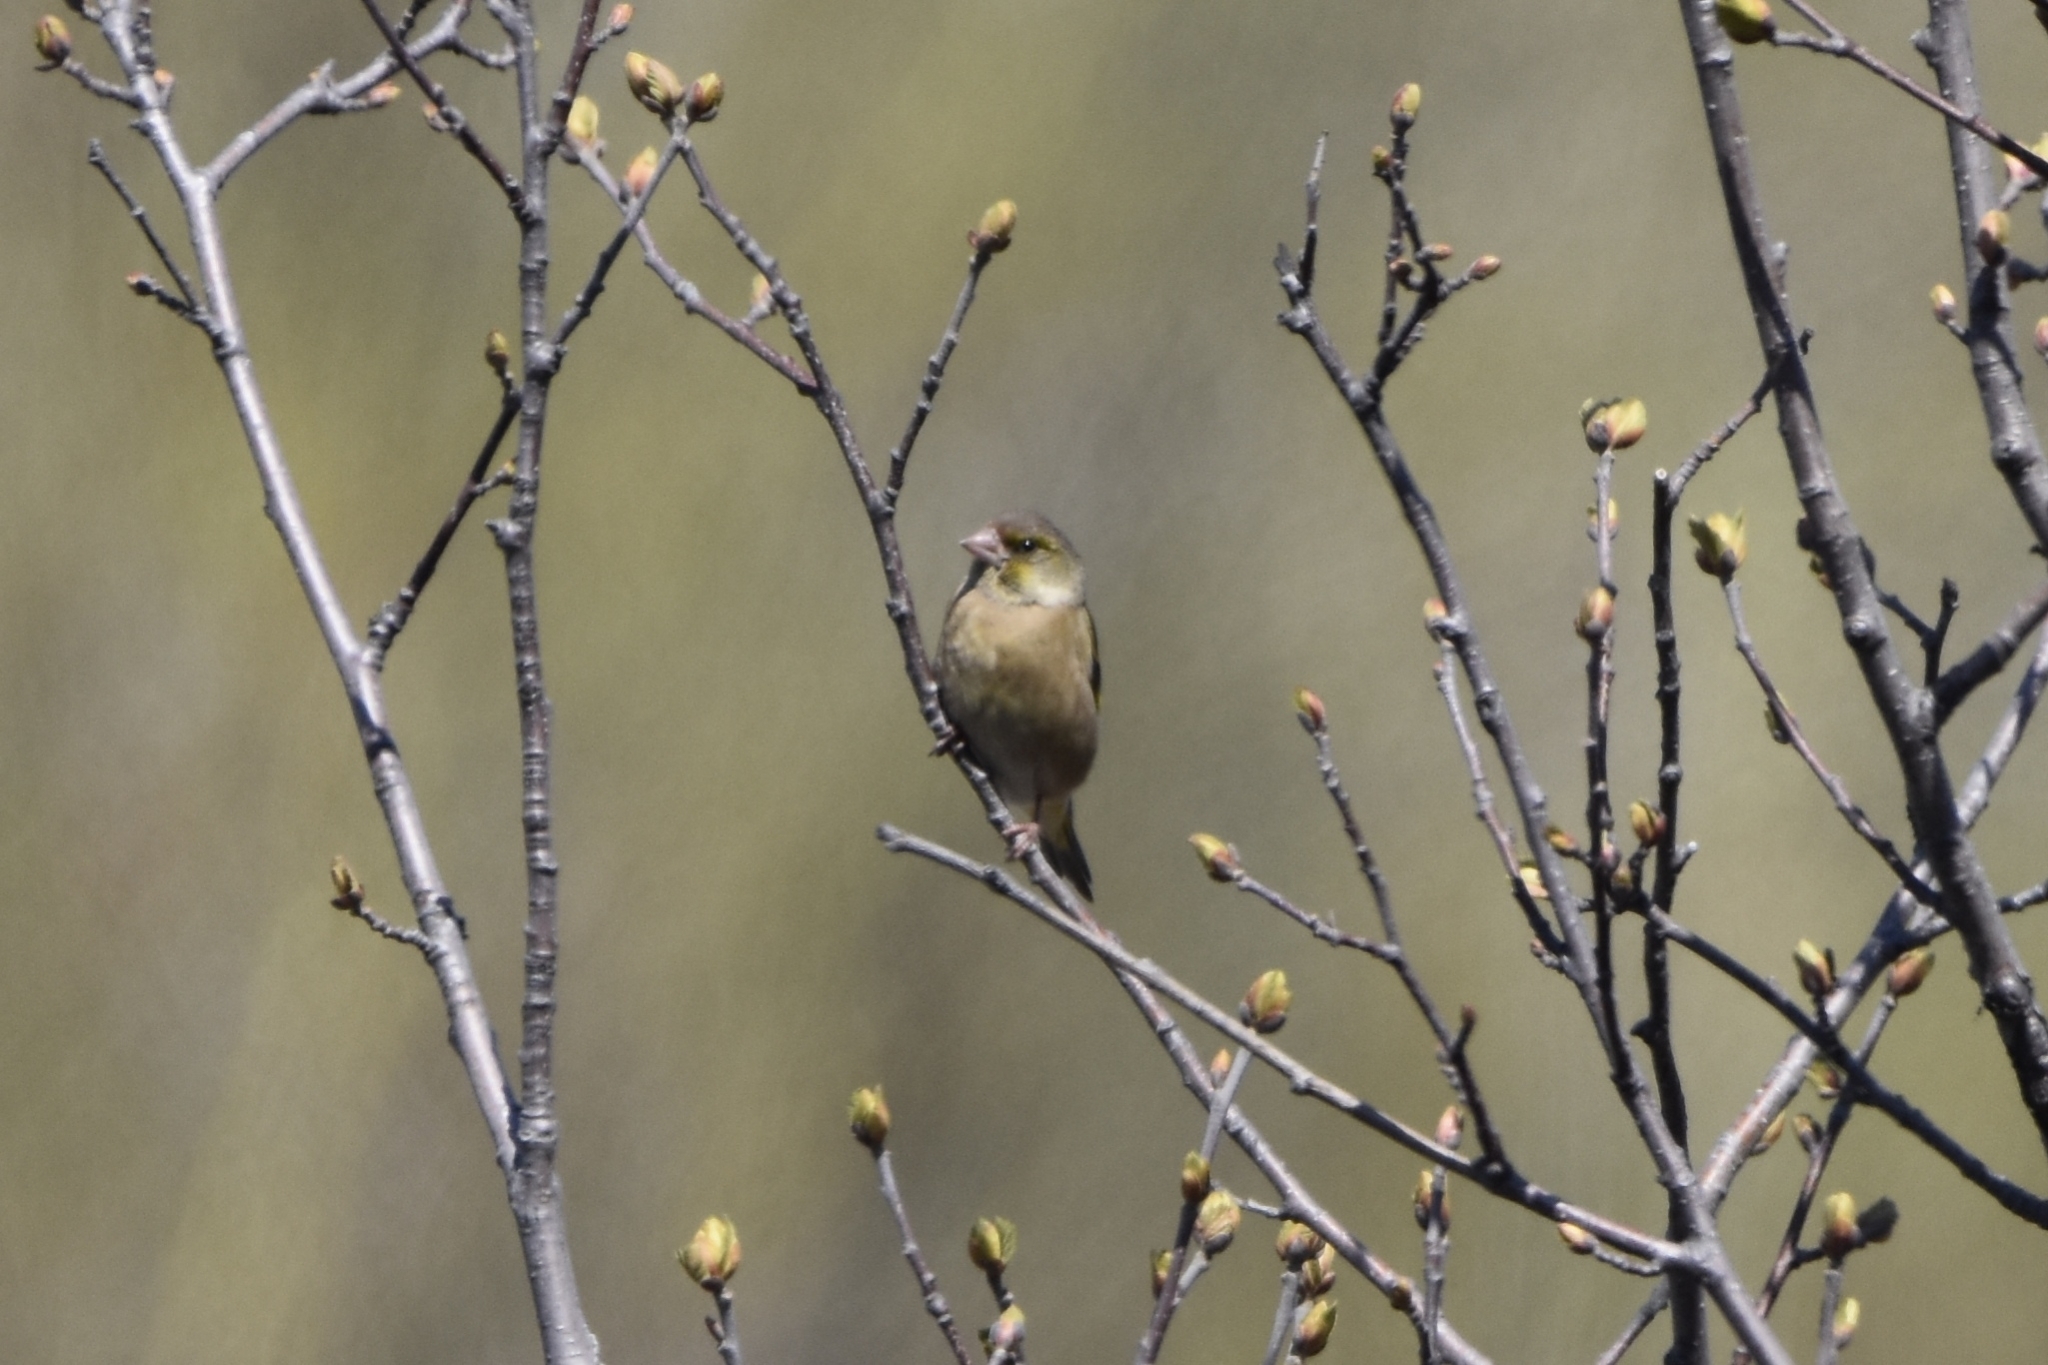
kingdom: Plantae
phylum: Tracheophyta
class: Liliopsida
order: Poales
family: Poaceae
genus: Chloris
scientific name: Chloris sinica
